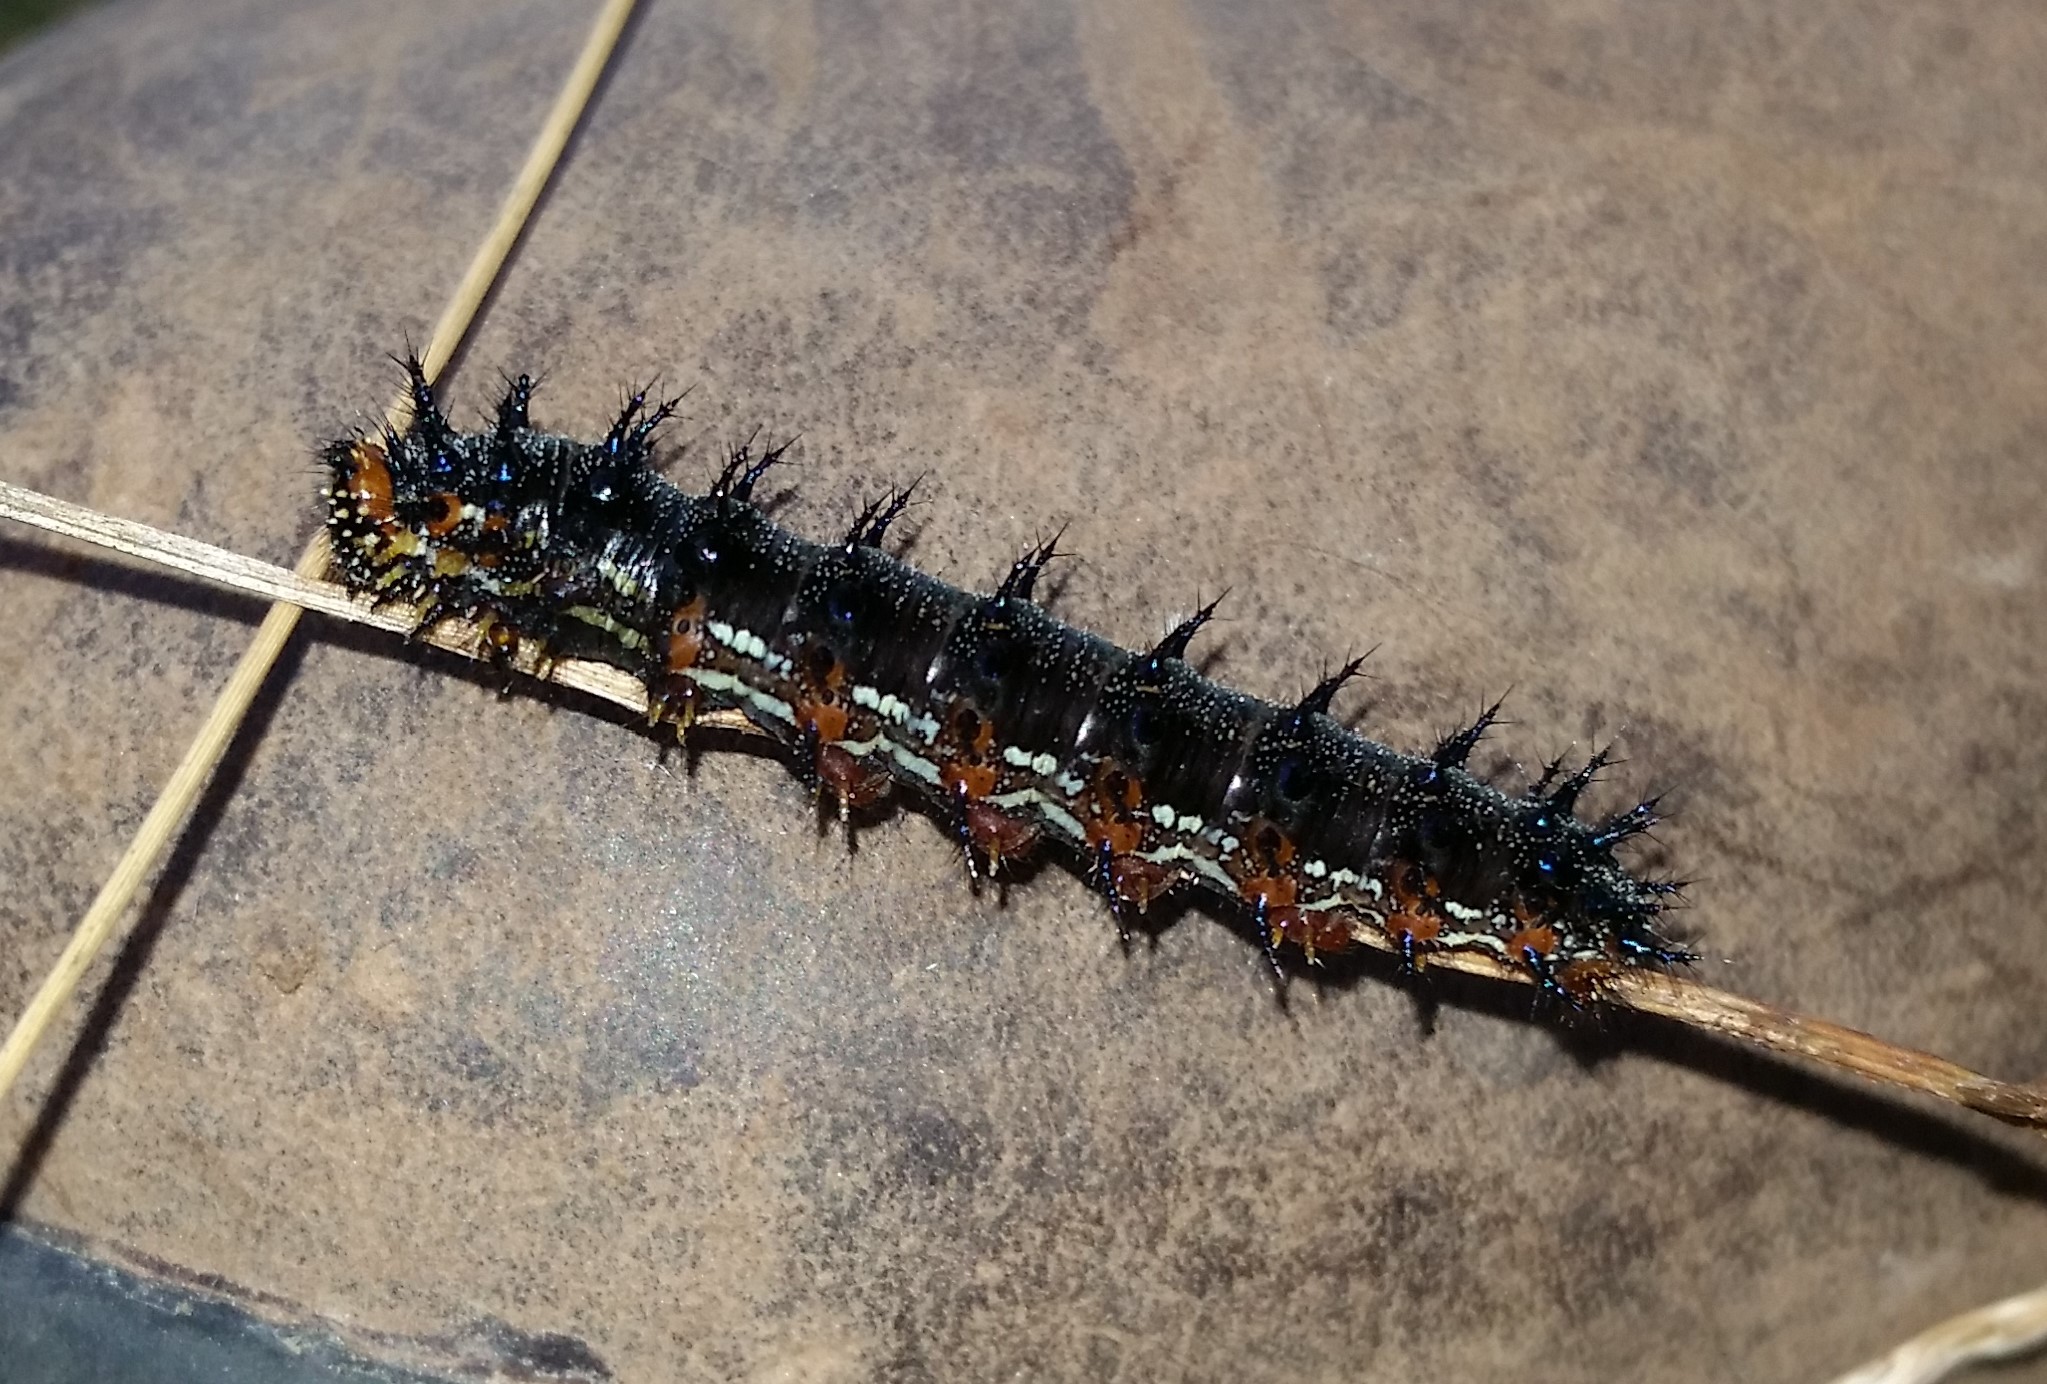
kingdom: Animalia
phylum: Arthropoda
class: Insecta
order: Lepidoptera
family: Nymphalidae
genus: Junonia
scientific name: Junonia coenia
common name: Common buckeye
